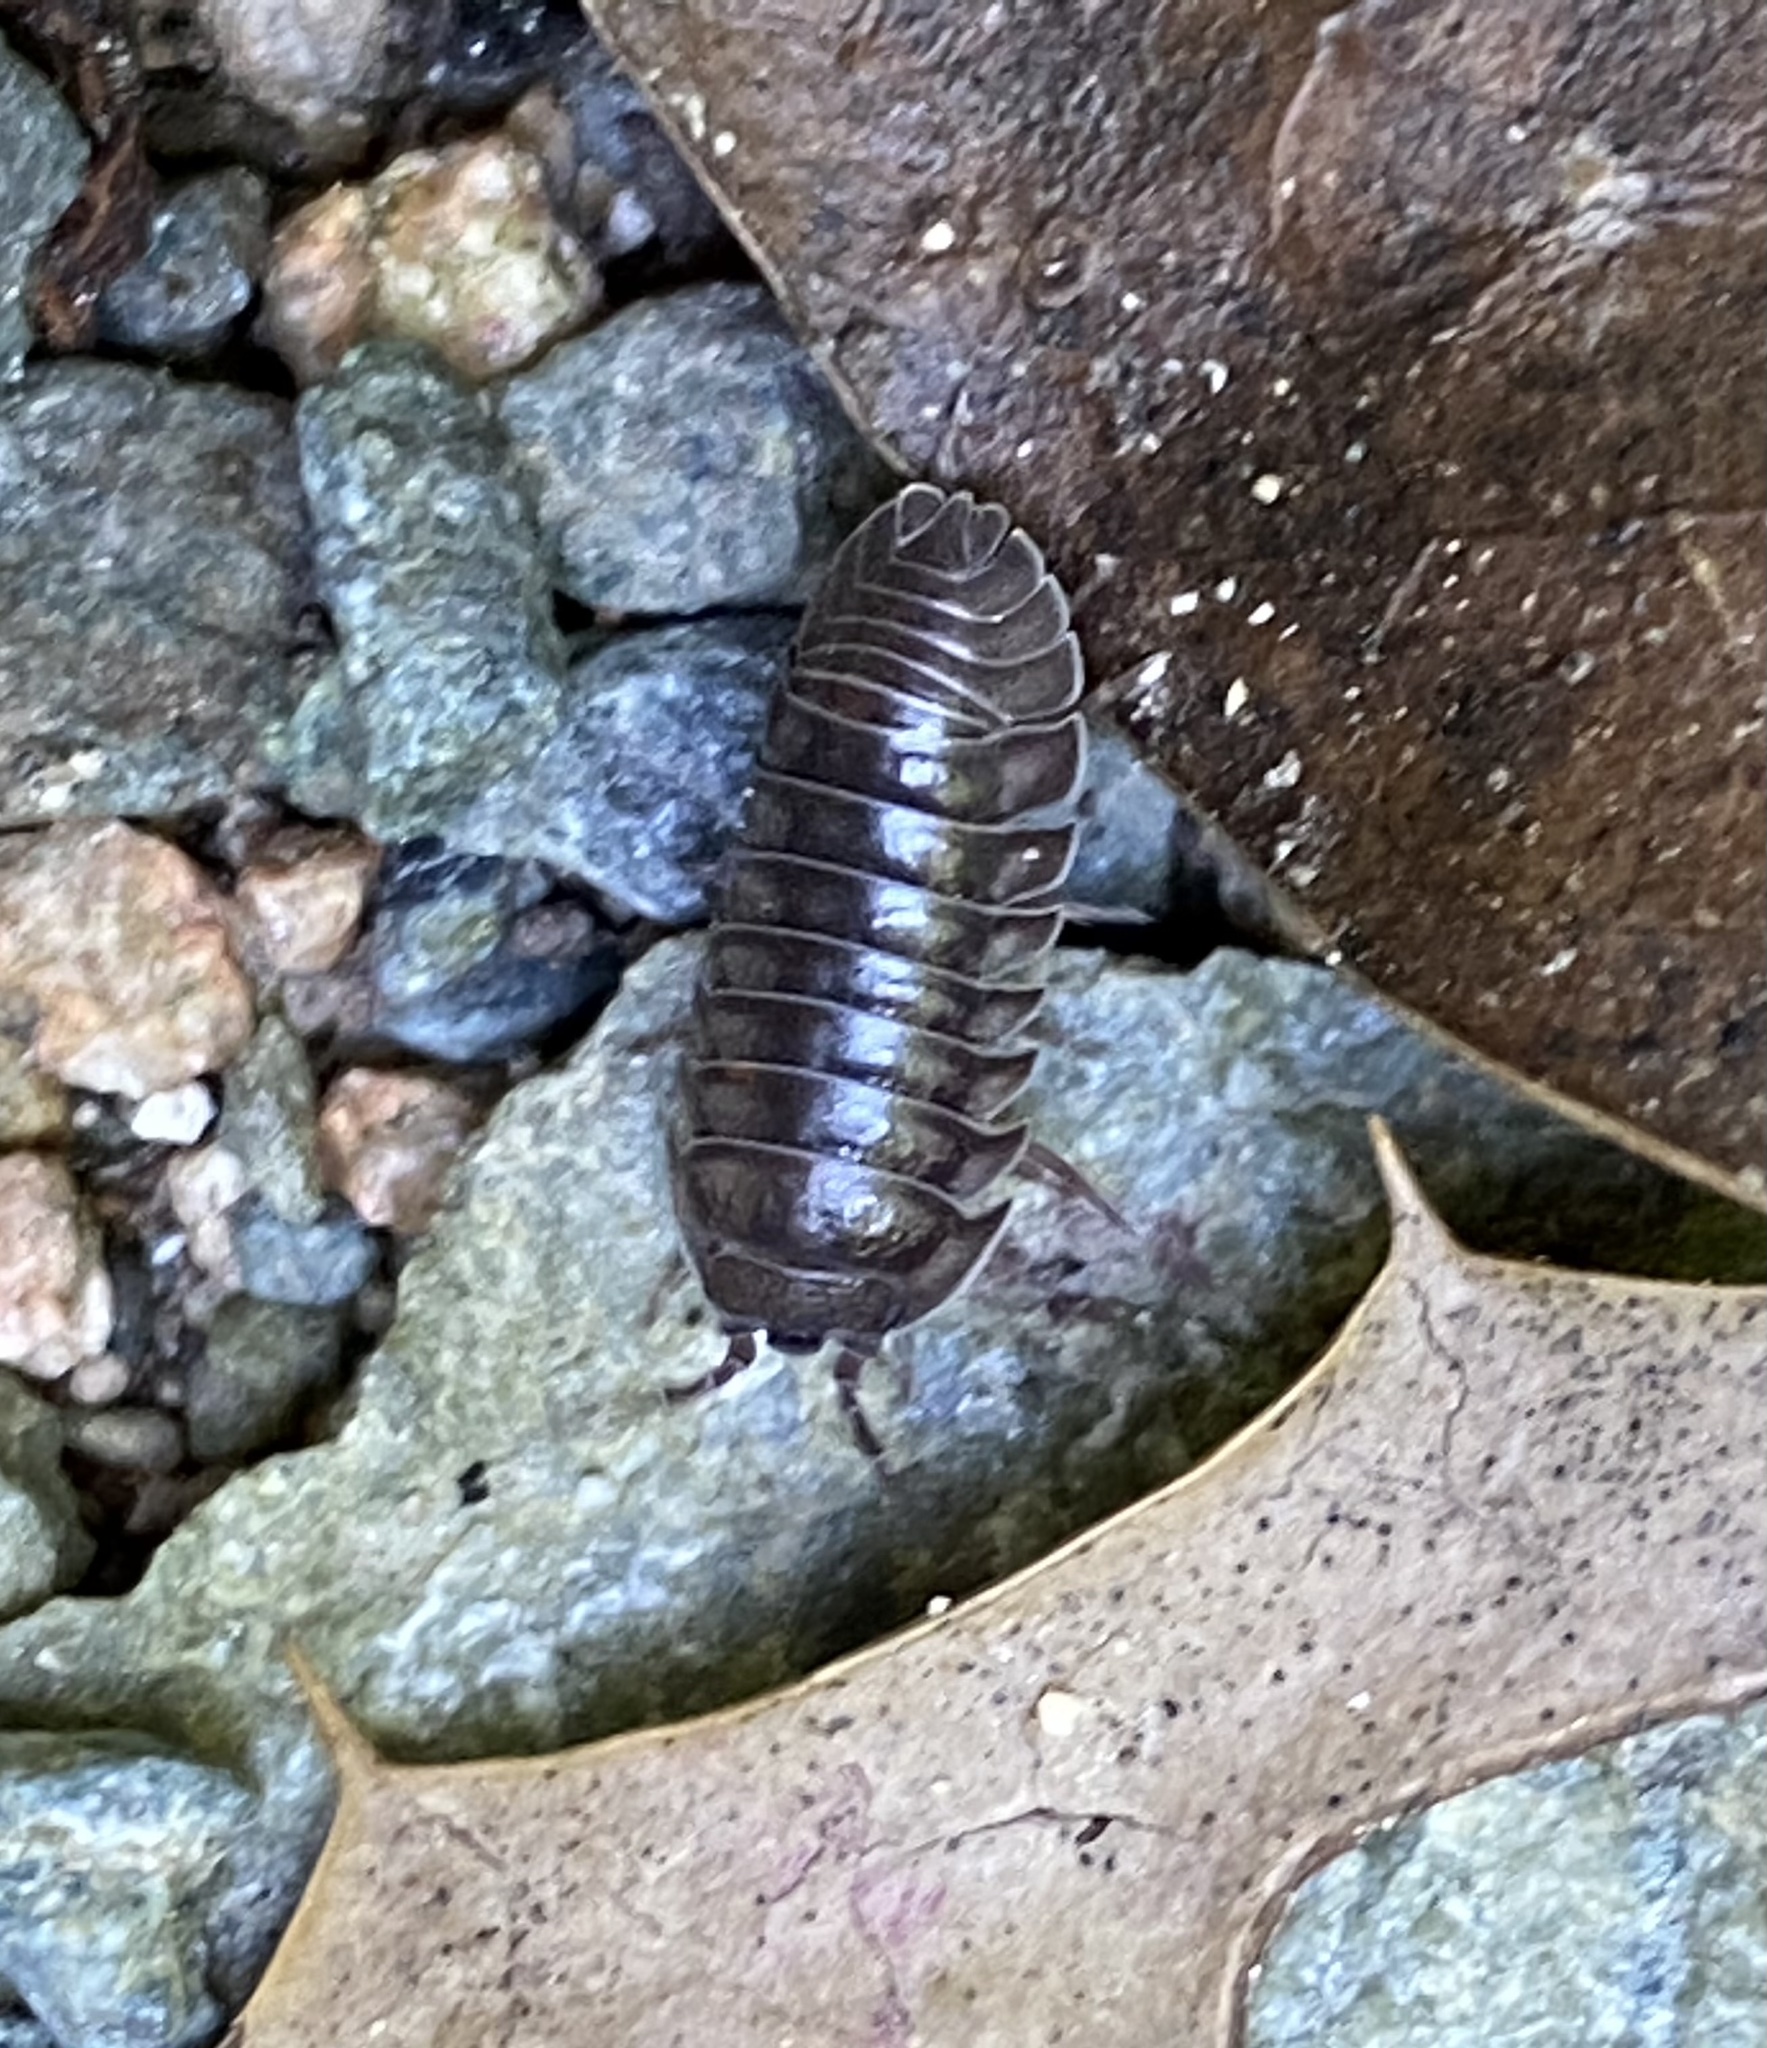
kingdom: Animalia
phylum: Arthropoda
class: Malacostraca
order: Isopoda
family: Armadillidiidae
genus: Armadillidium
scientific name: Armadillidium nasatum
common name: Isopod
